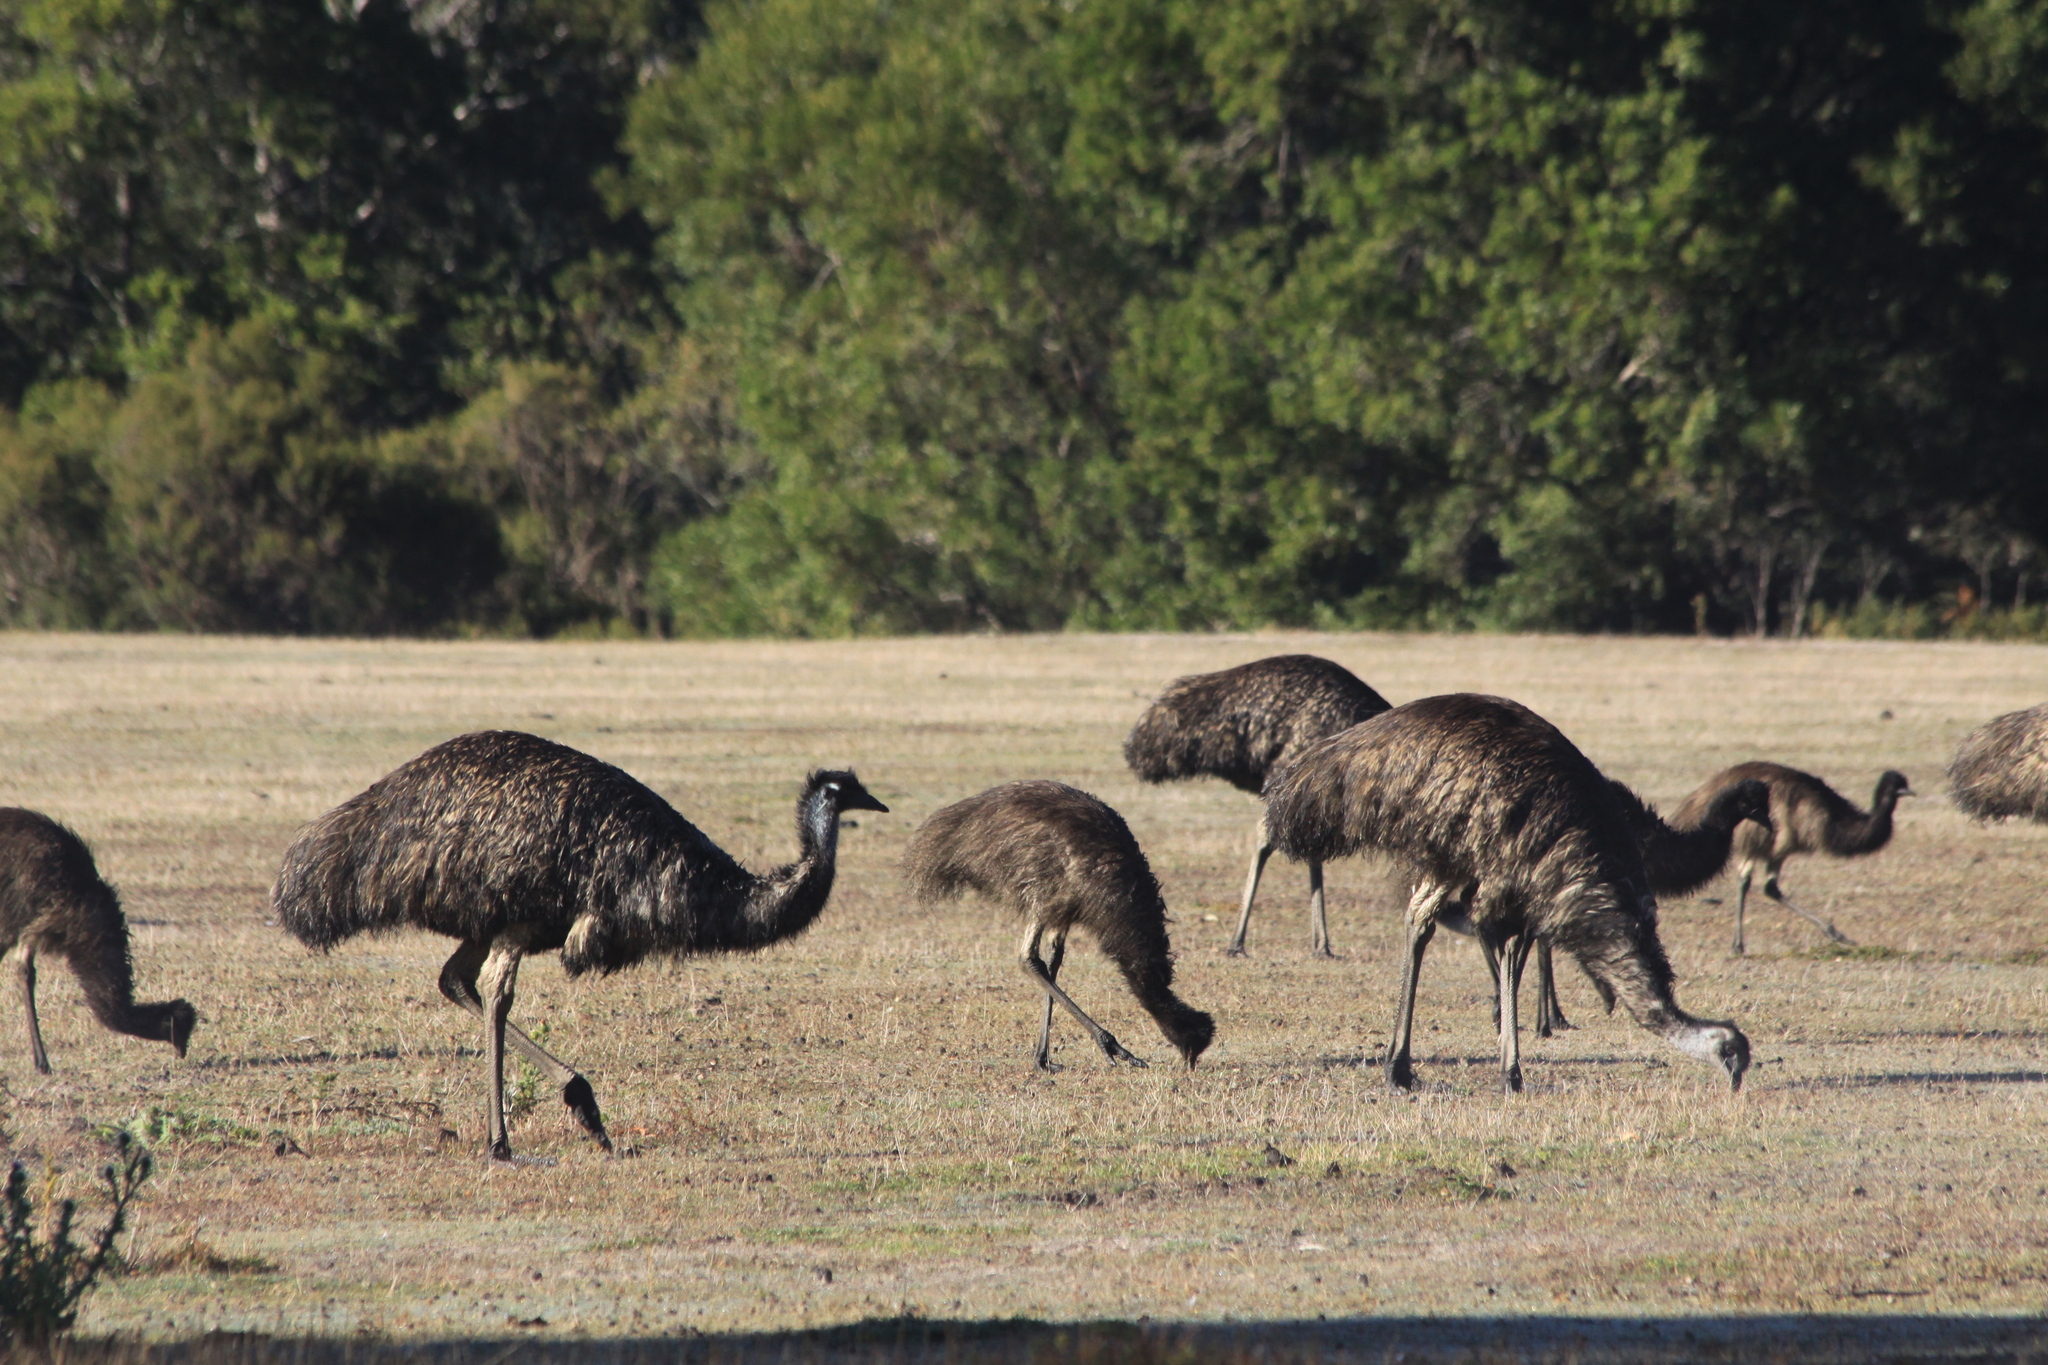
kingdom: Animalia
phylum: Chordata
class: Aves
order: Casuariiformes
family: Dromaiidae
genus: Dromaius
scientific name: Dromaius novaehollandiae
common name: Emu
